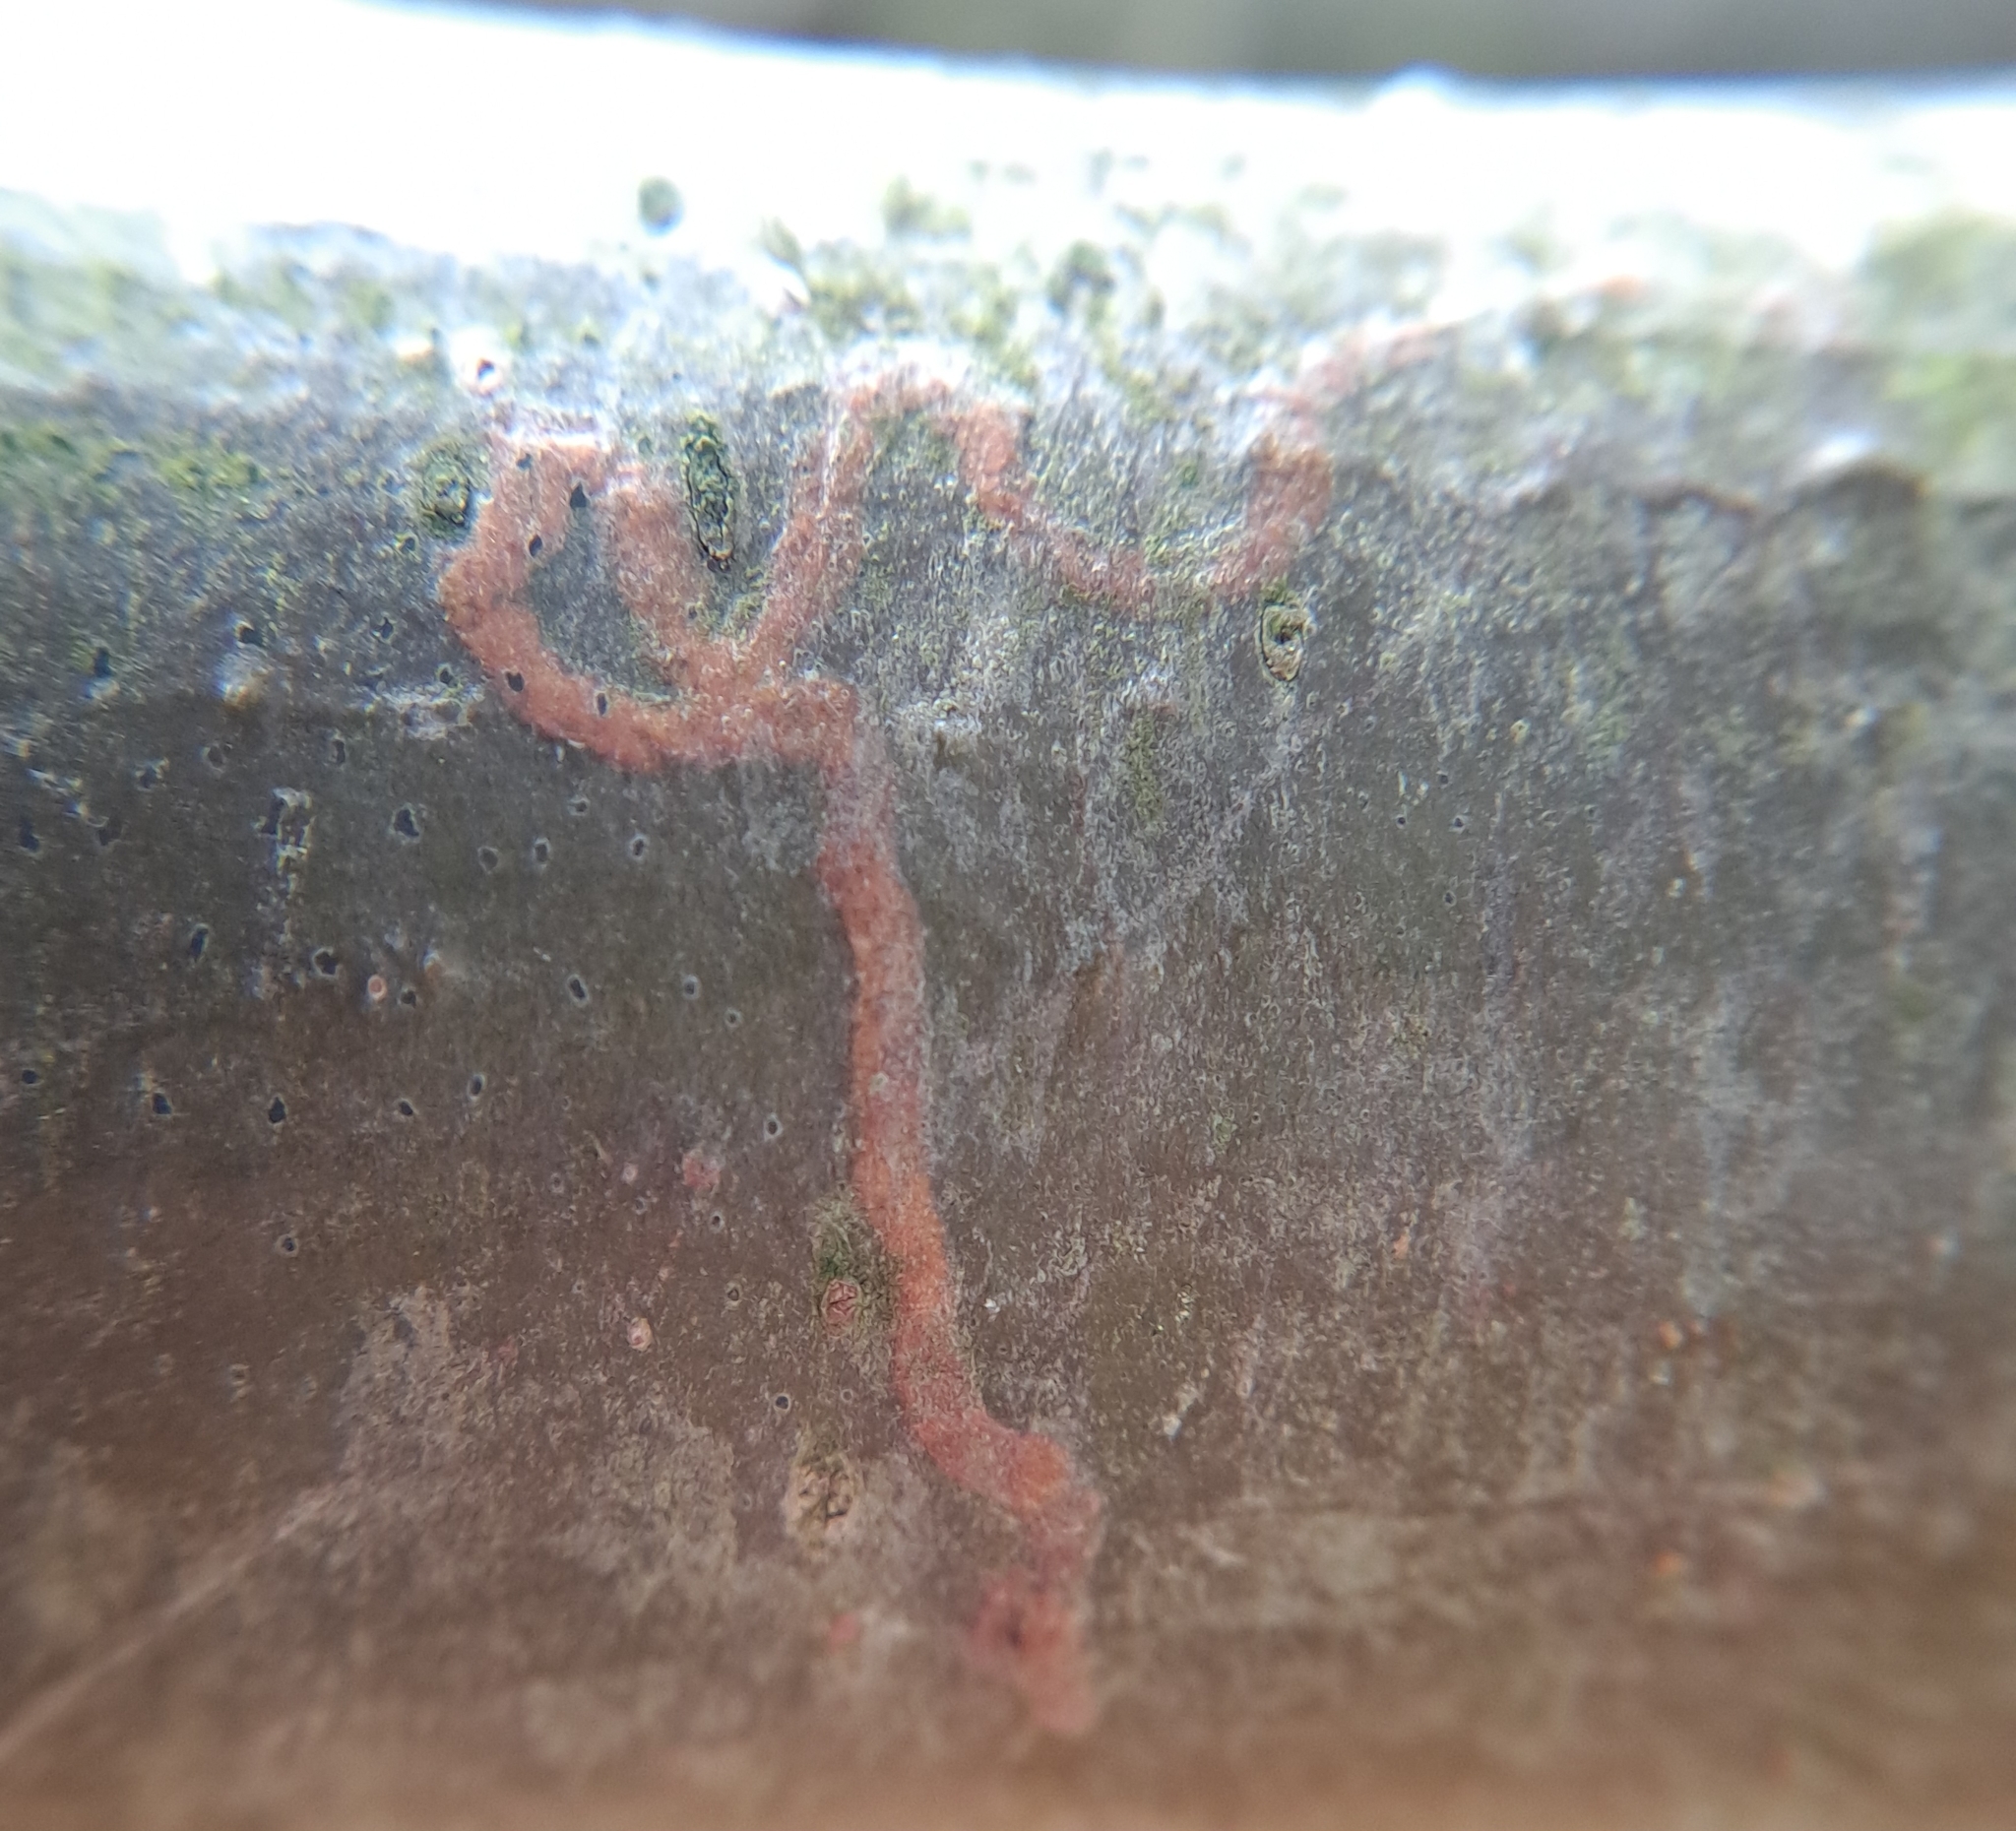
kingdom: Animalia
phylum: Arthropoda
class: Insecta
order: Lepidoptera
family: Gracillariidae
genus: Marmara
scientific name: Marmara fasciella
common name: White pine barkminer moth
